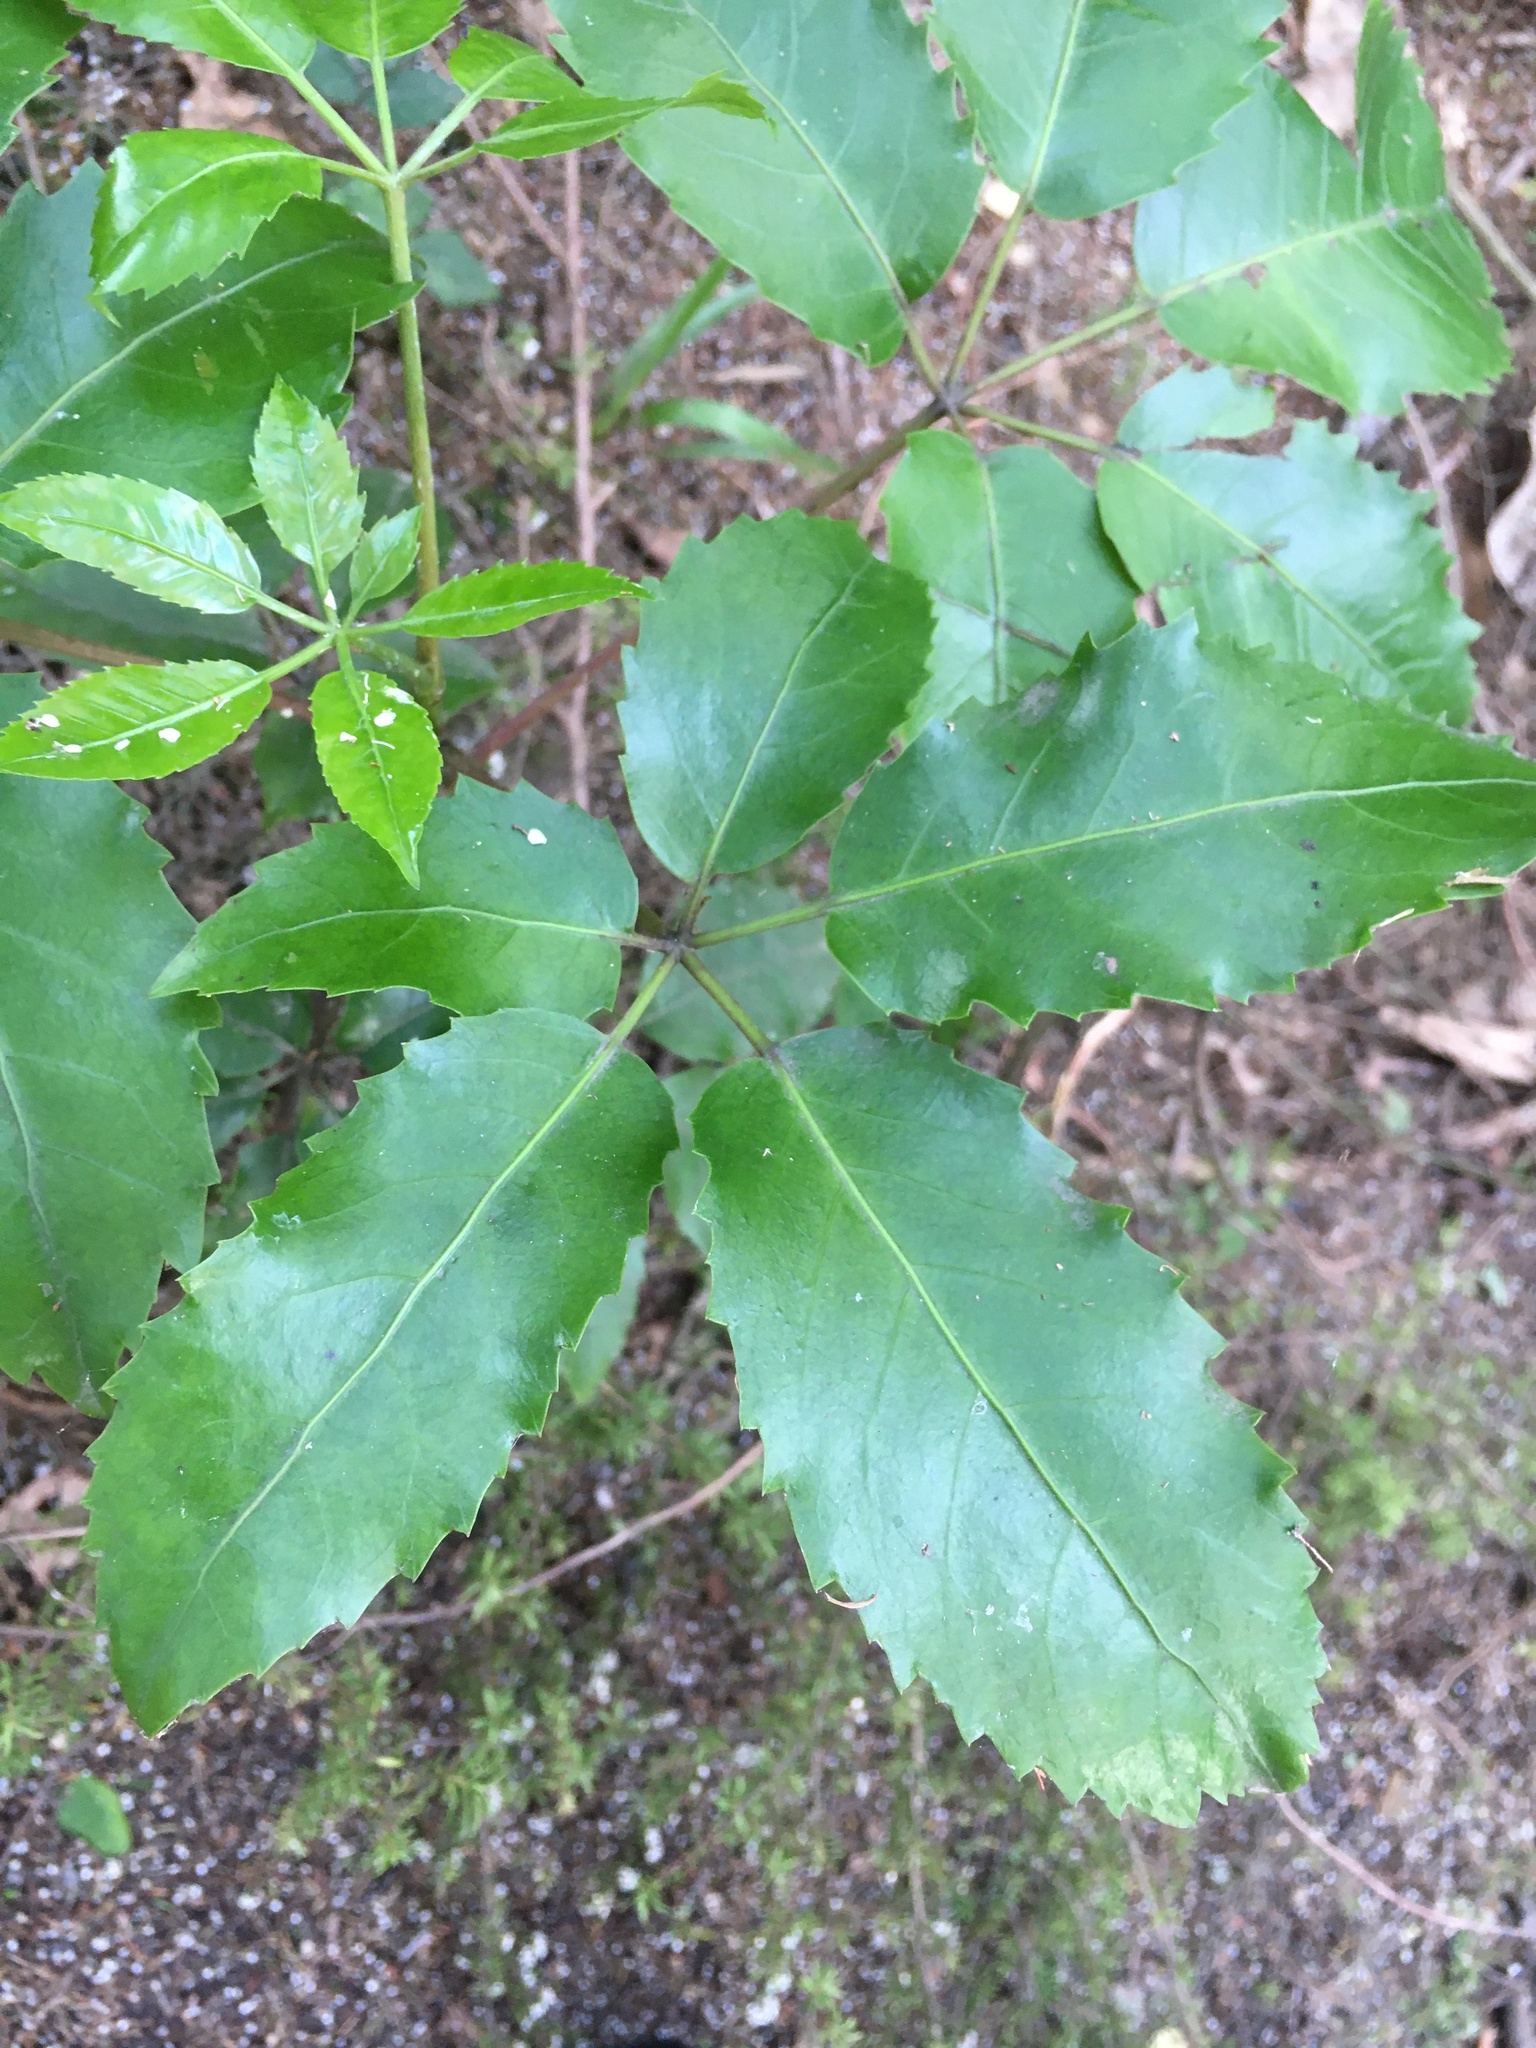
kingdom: Plantae
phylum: Tracheophyta
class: Magnoliopsida
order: Apiales
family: Araliaceae
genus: Neopanax
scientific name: Neopanax arboreus
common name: Five-fingers
